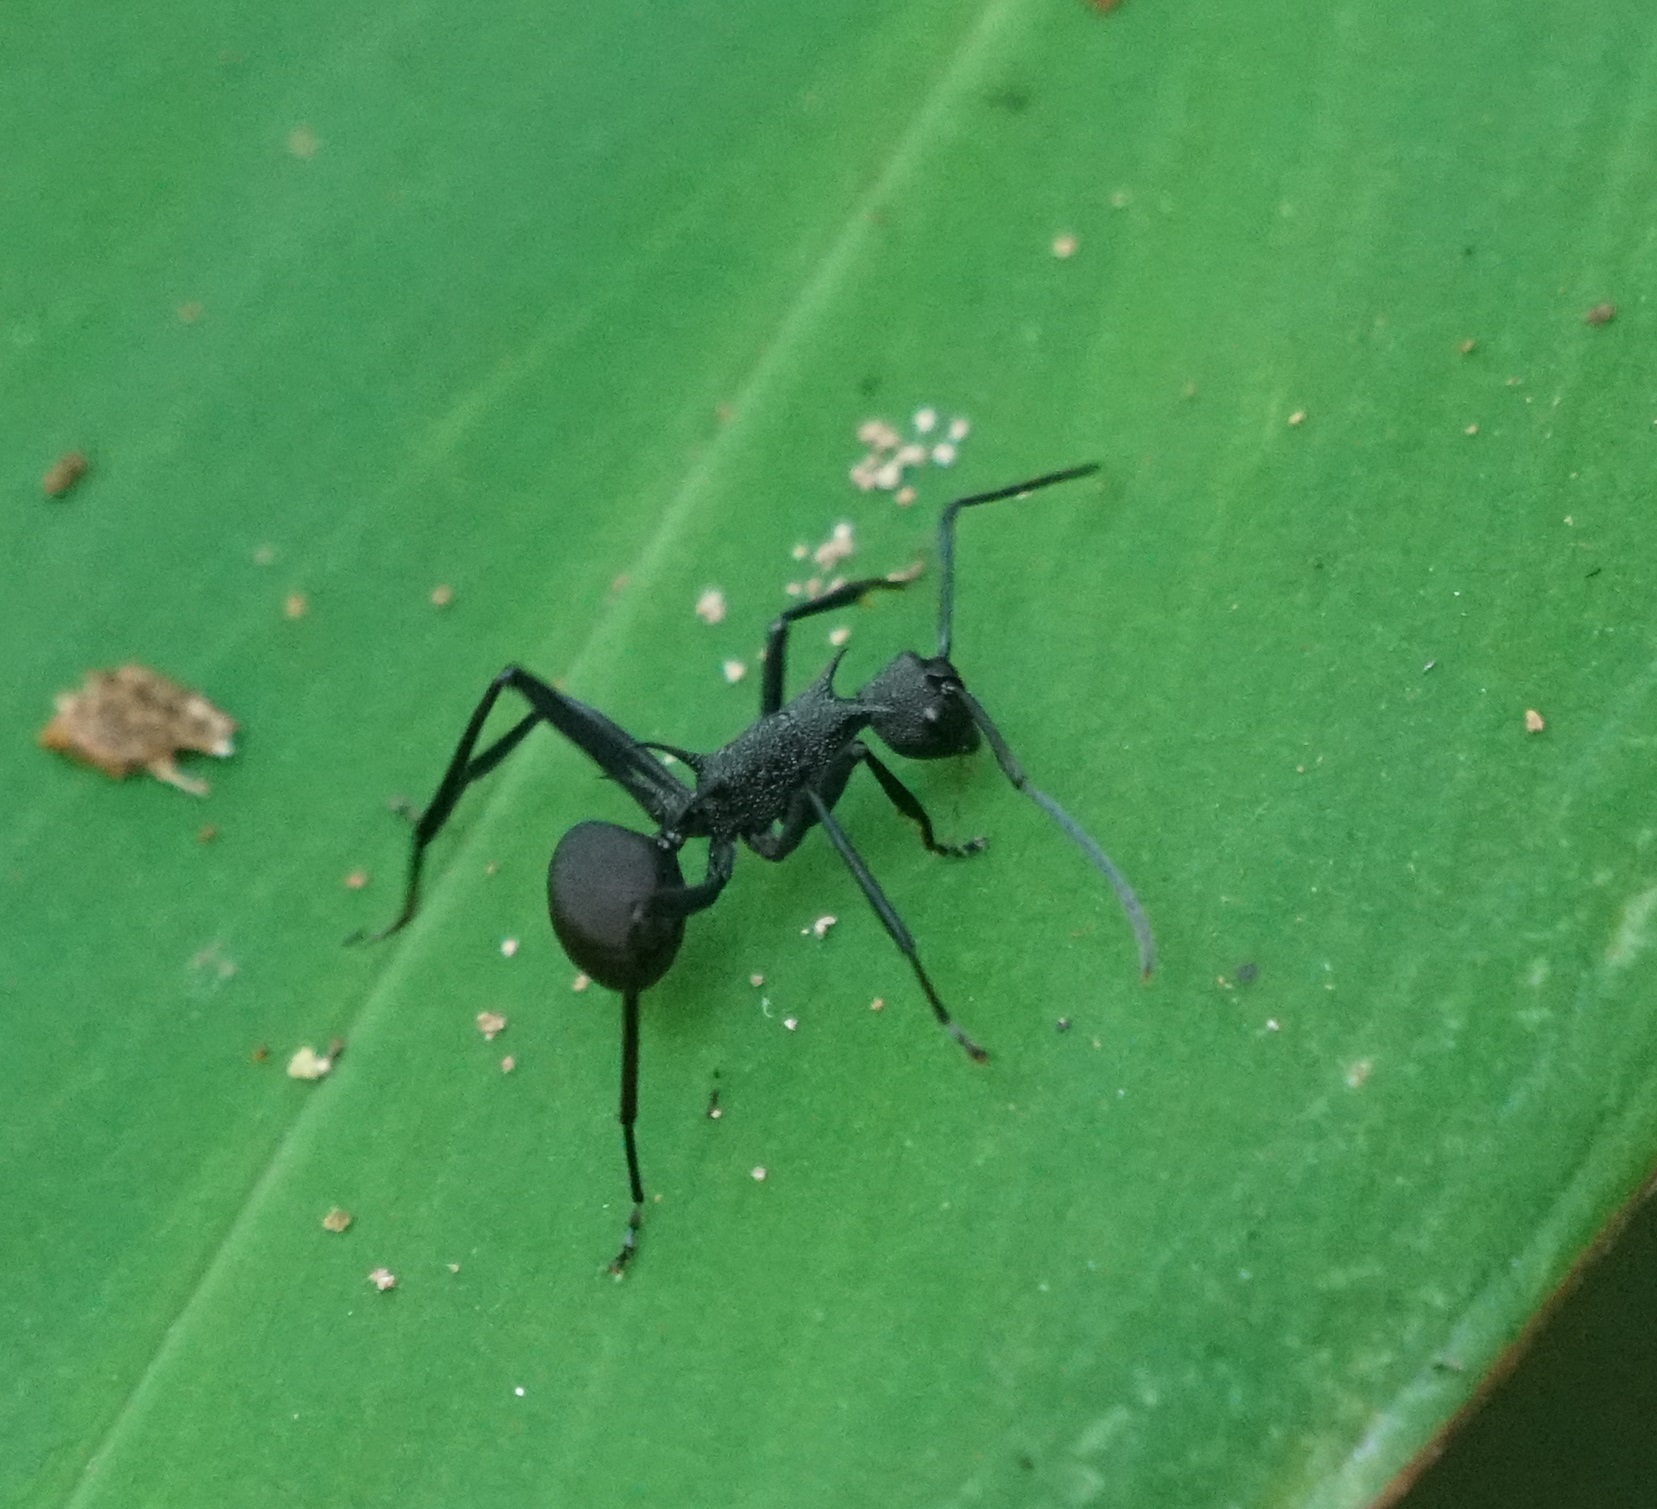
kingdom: Animalia
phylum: Arthropoda
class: Insecta
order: Hymenoptera
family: Formicidae
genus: Polyrhachis
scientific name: Polyrhachis armata
